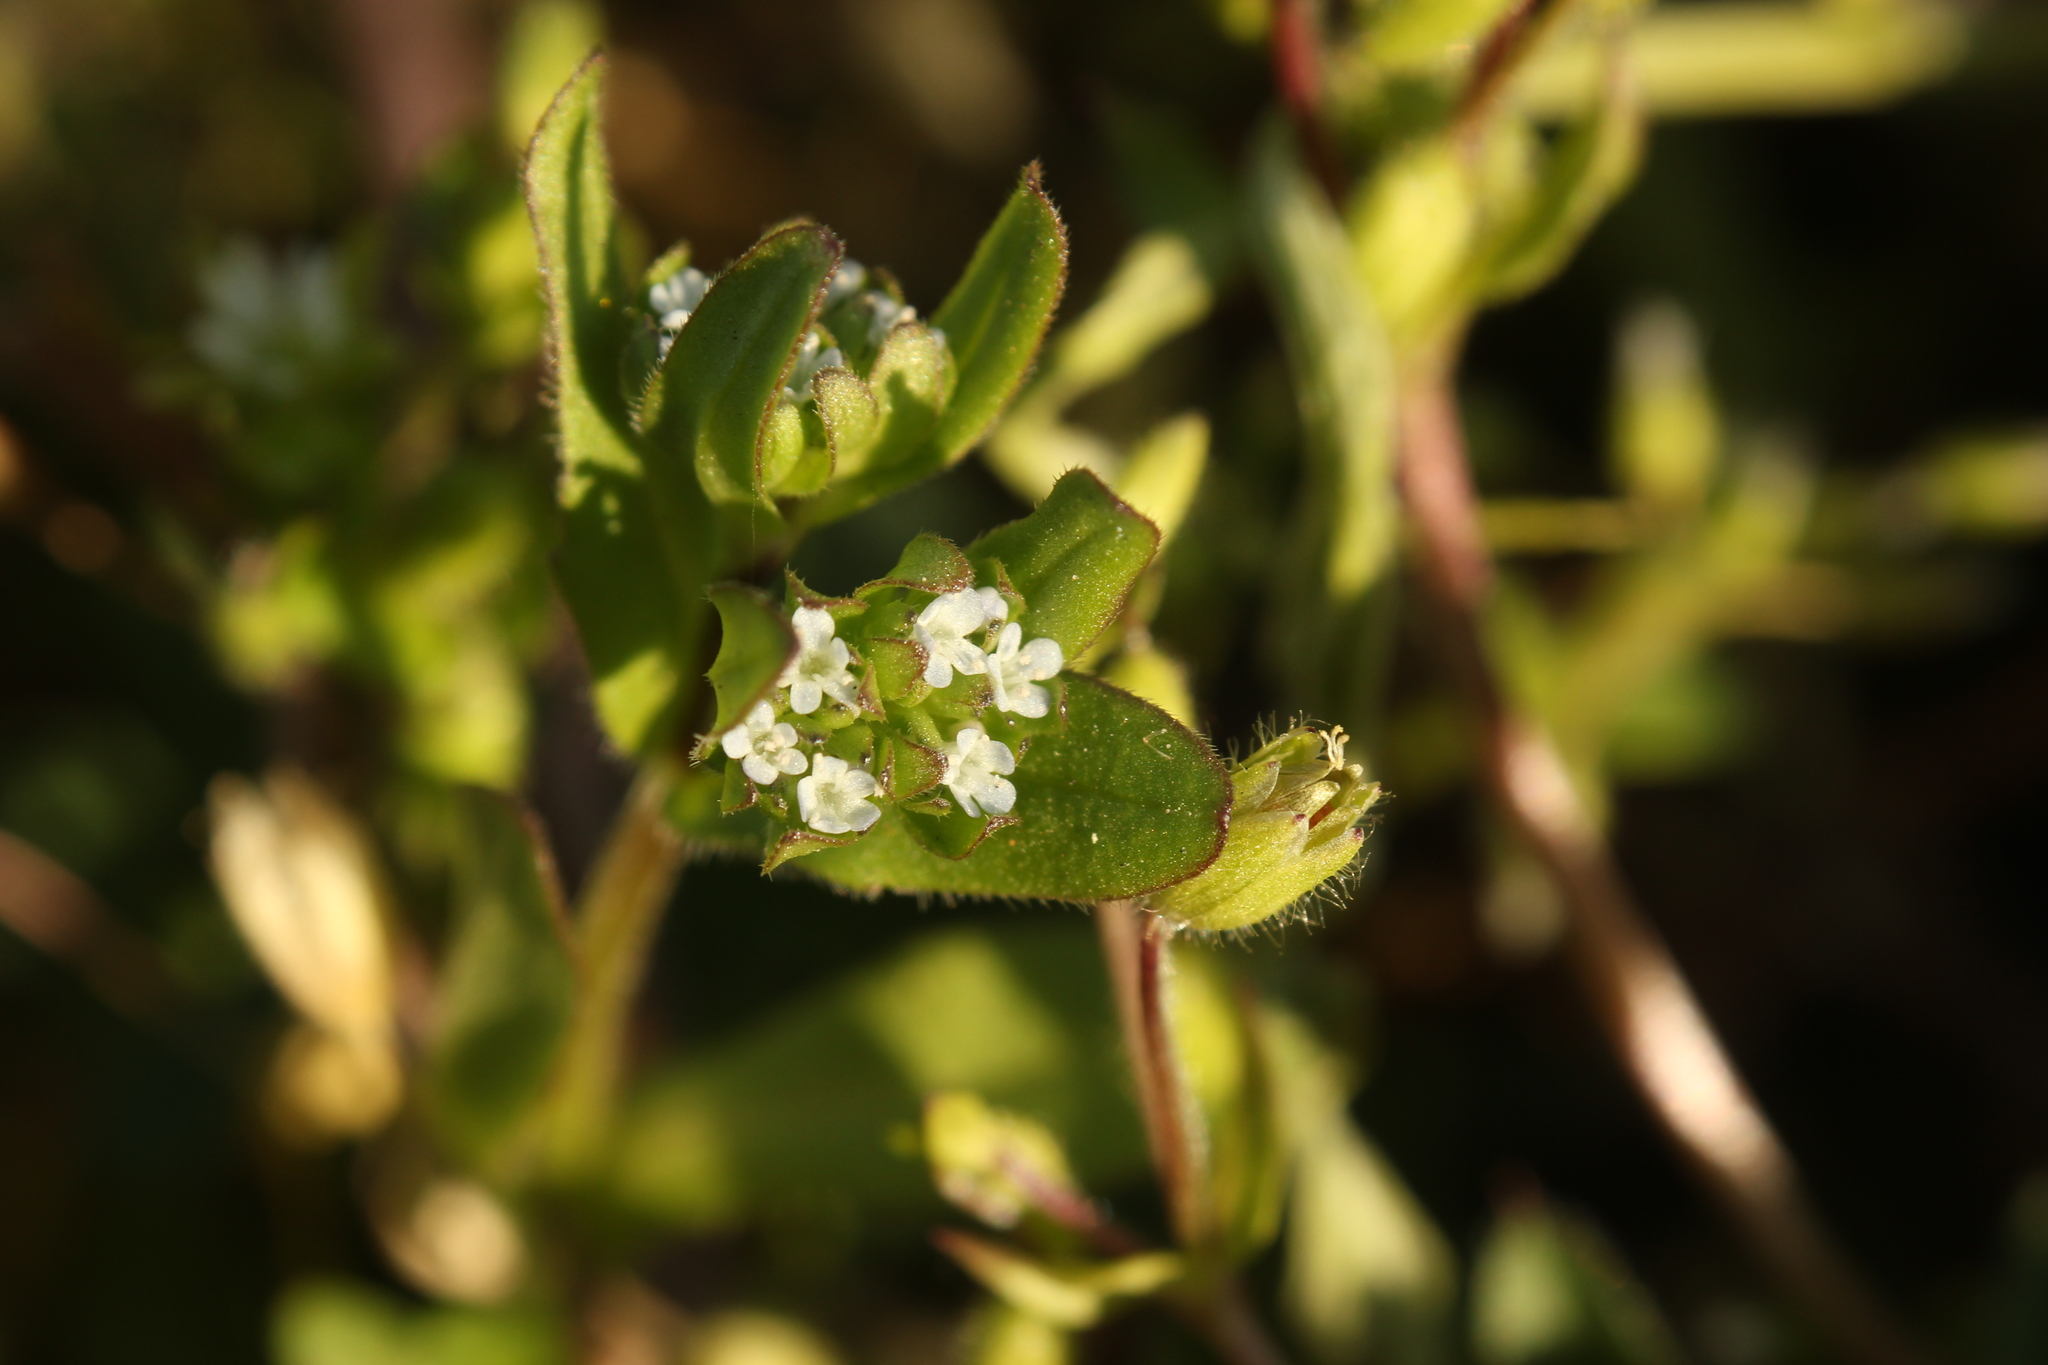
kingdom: Plantae
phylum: Tracheophyta
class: Magnoliopsida
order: Dipsacales
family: Caprifoliaceae
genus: Valerianella
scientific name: Valerianella locusta
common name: Common cornsalad
